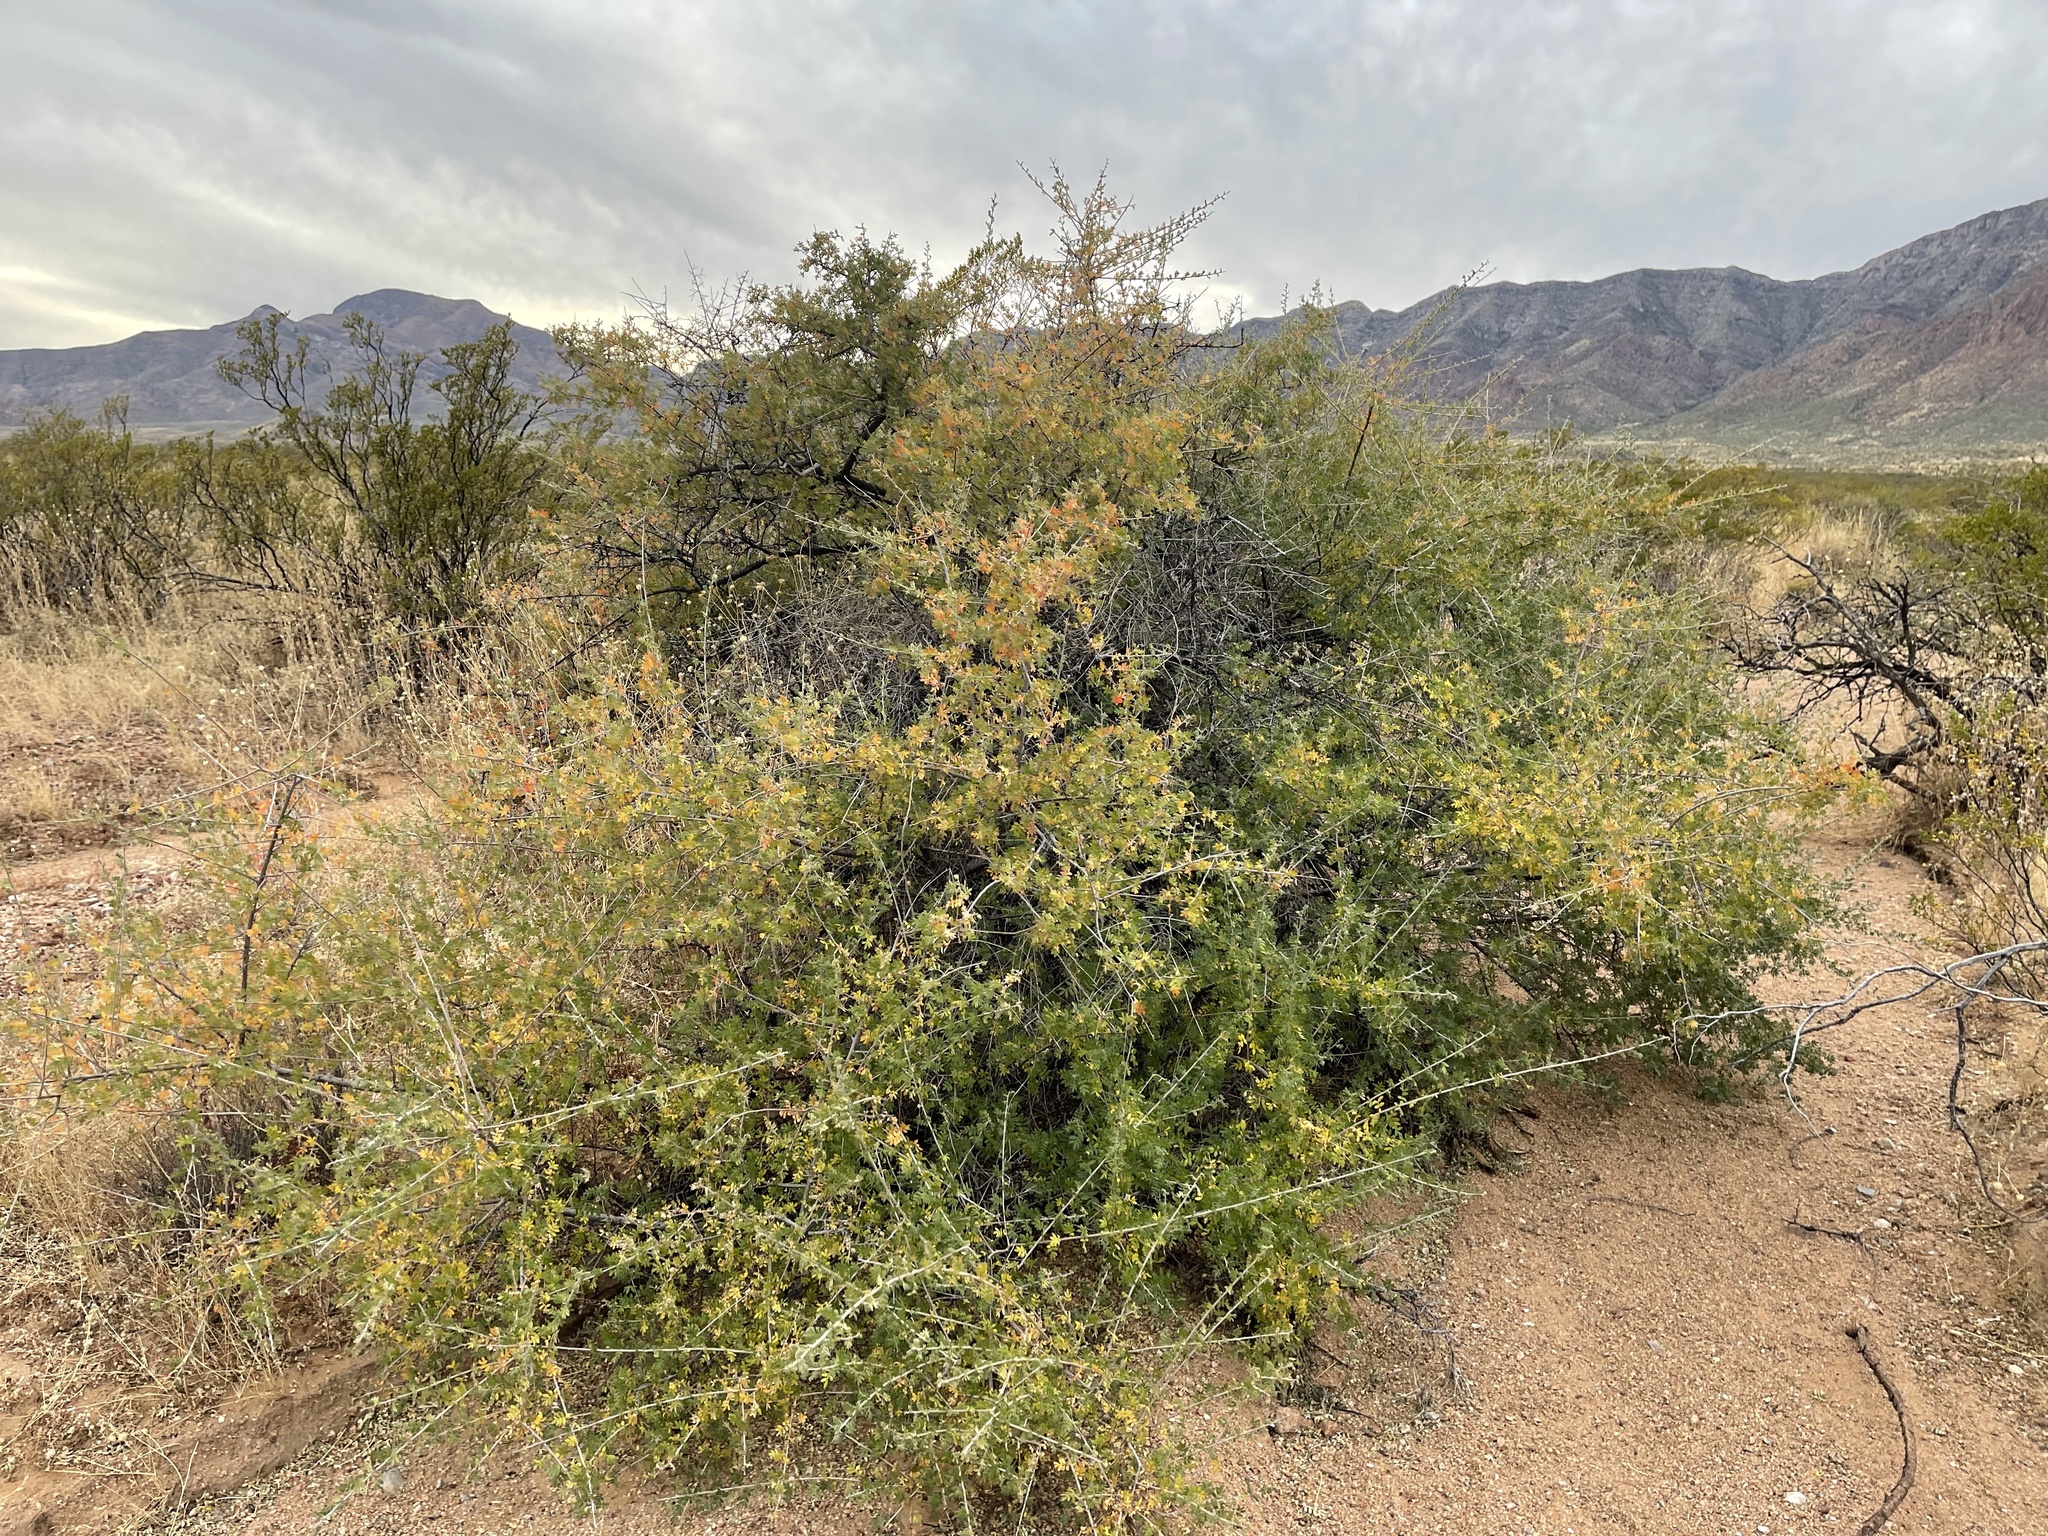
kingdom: Plantae
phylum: Tracheophyta
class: Magnoliopsida
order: Sapindales
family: Anacardiaceae
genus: Rhus
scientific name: Rhus microphylla
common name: Desert sumac
